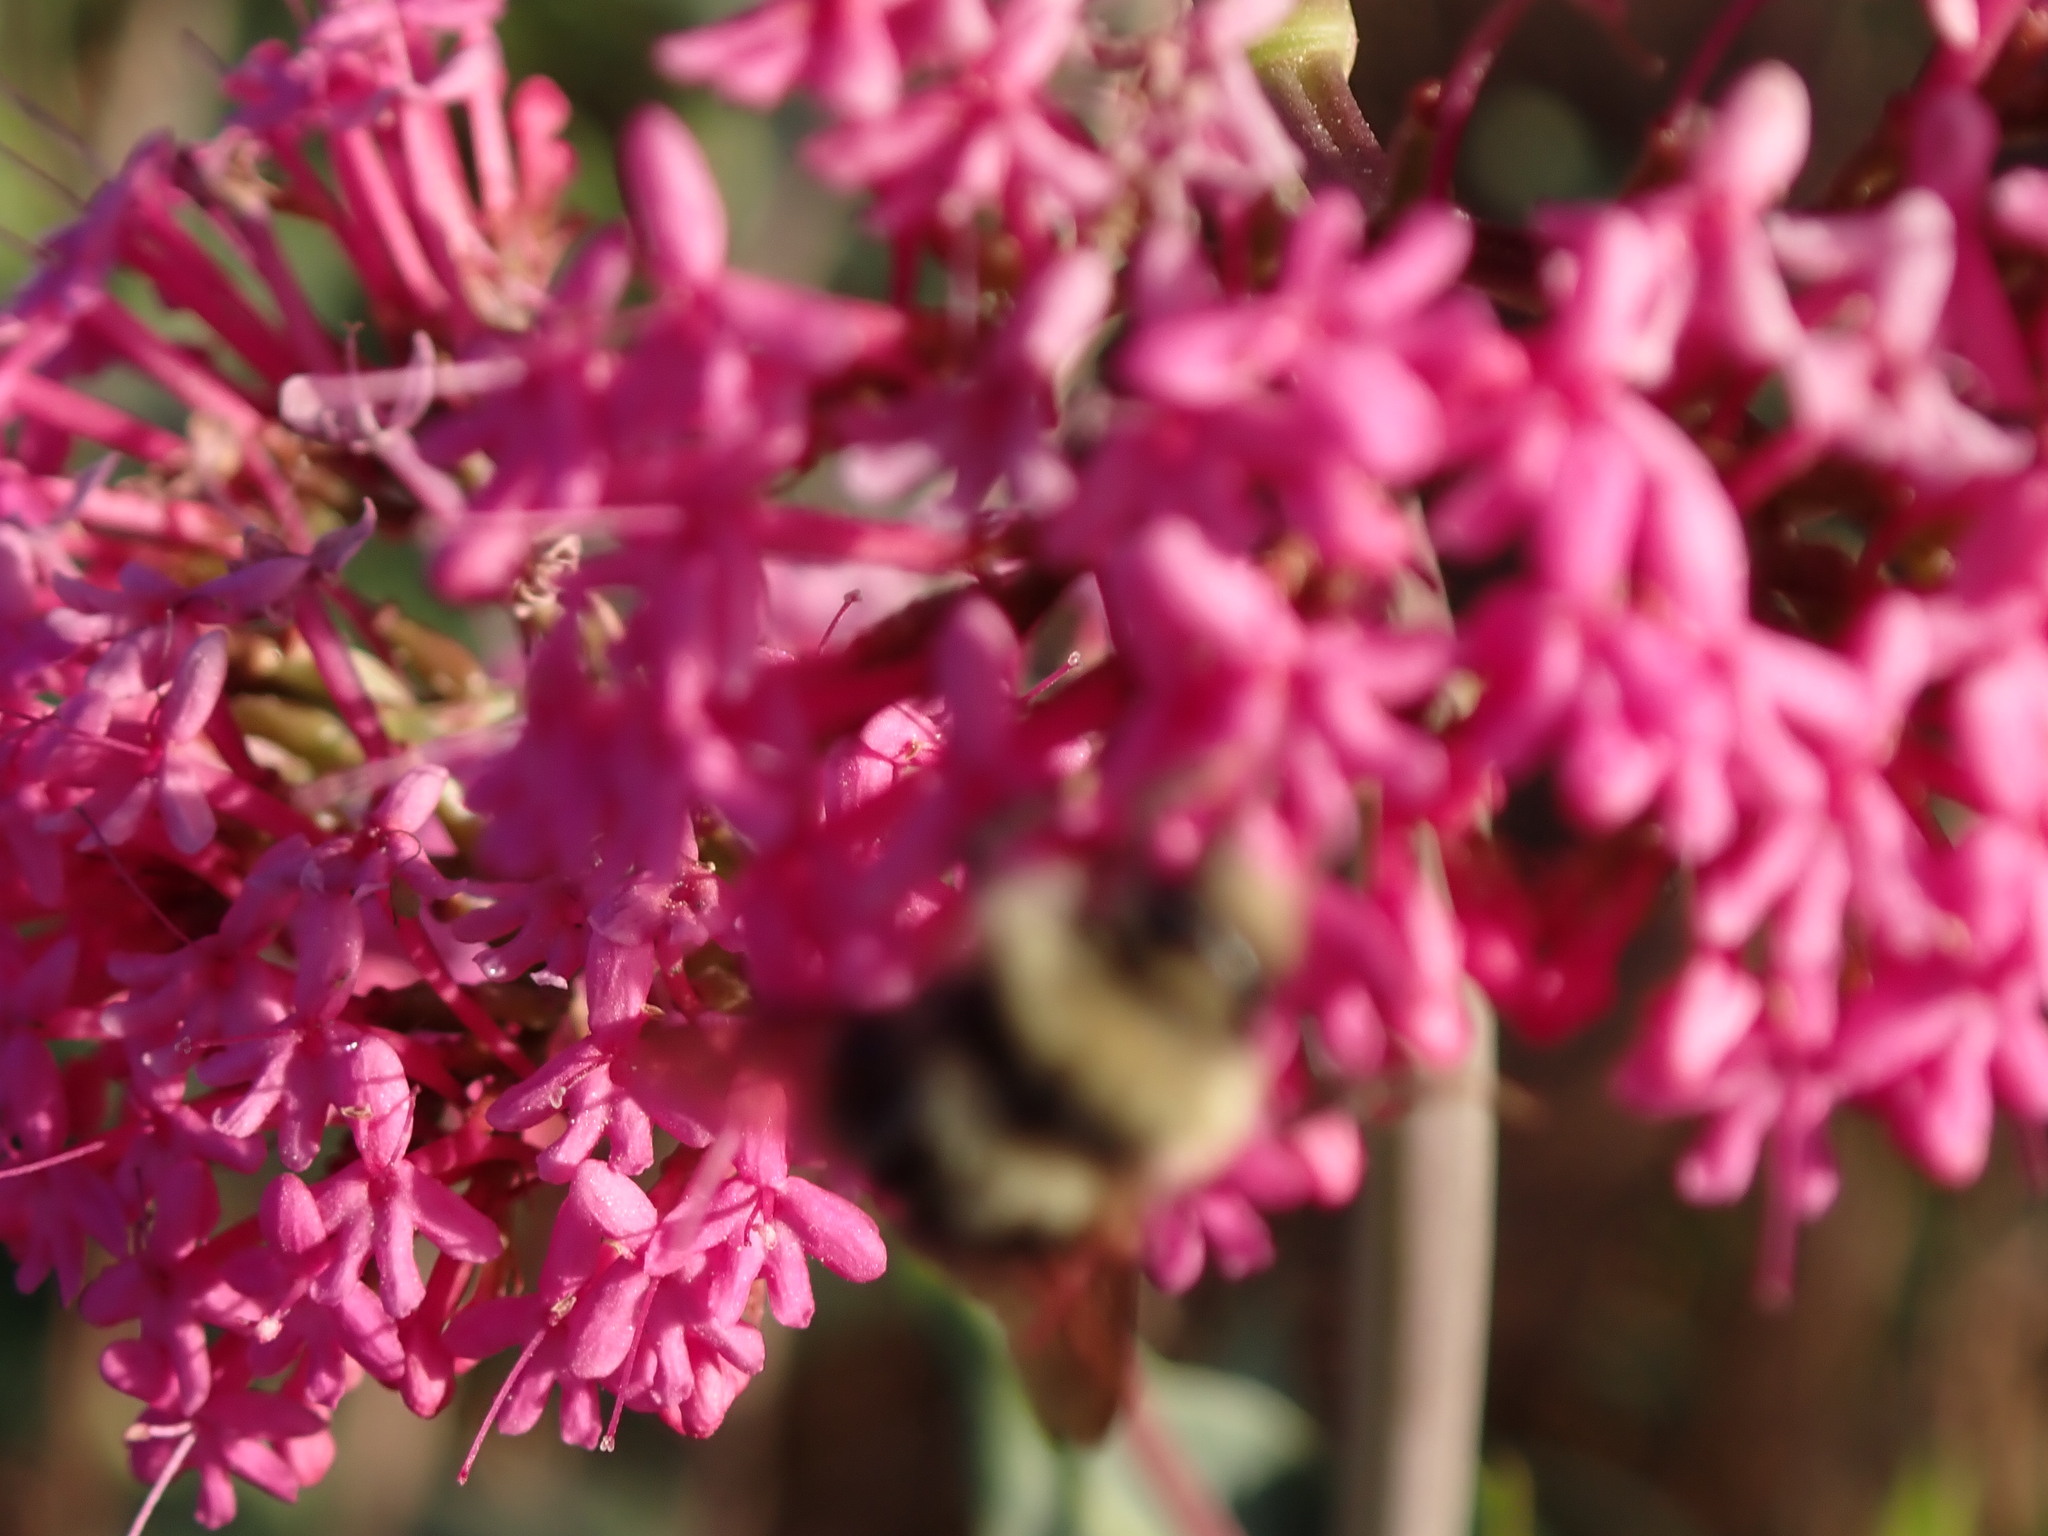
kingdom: Plantae
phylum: Tracheophyta
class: Magnoliopsida
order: Dipsacales
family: Caprifoliaceae
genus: Centranthus
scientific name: Centranthus ruber
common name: Red valerian
